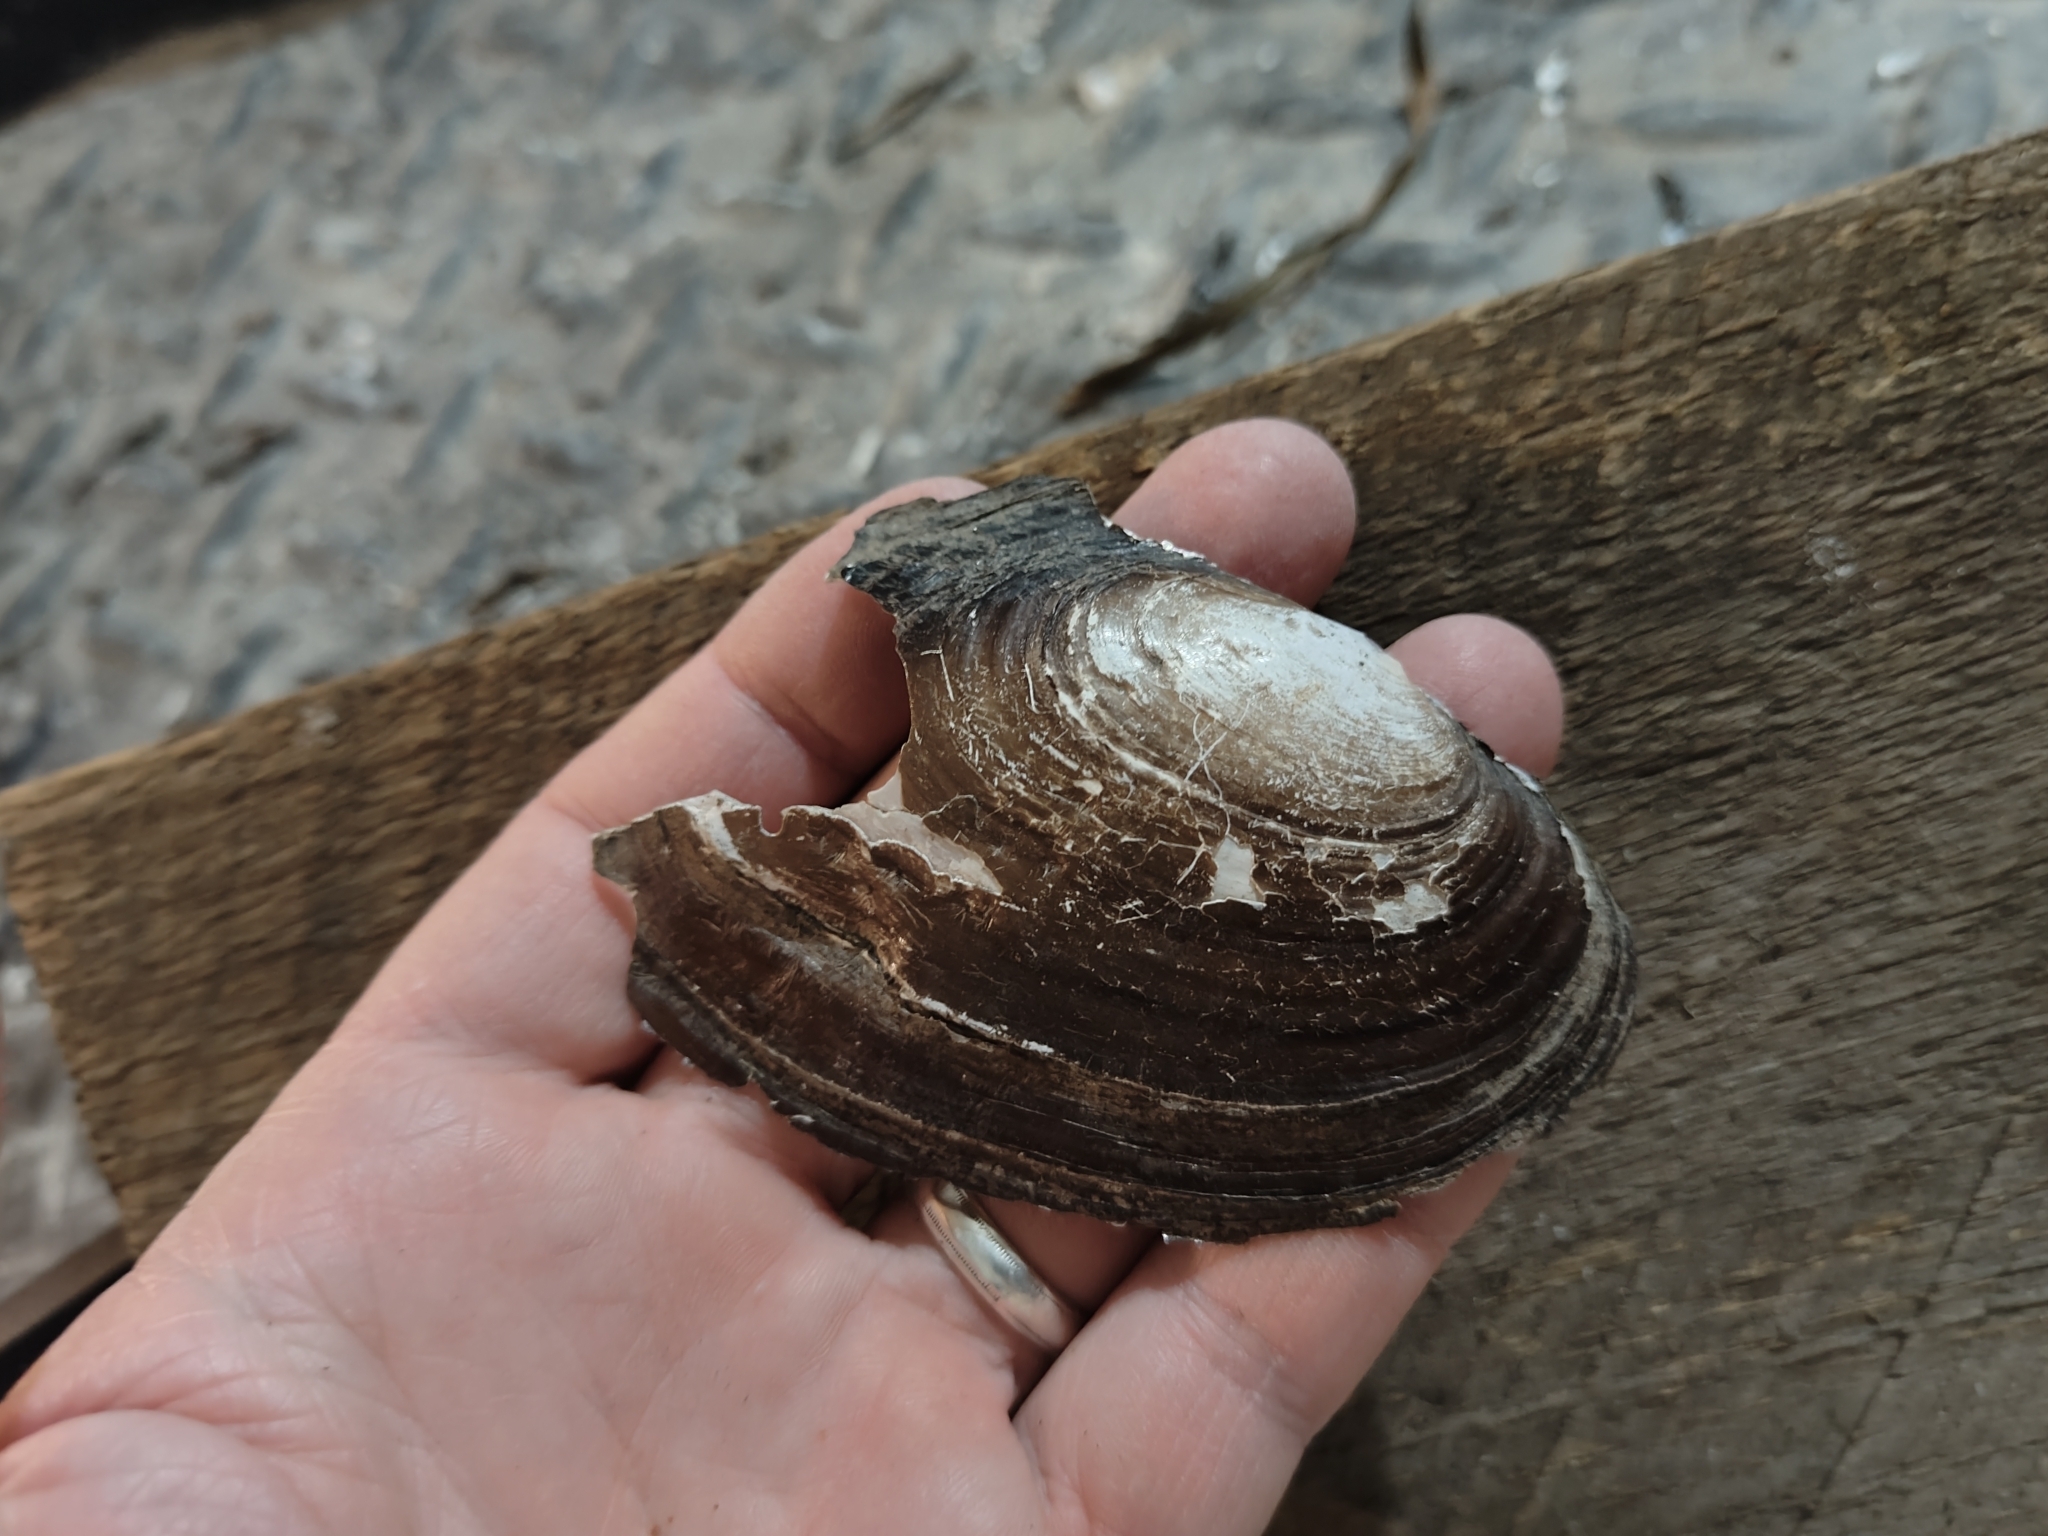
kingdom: Animalia
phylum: Mollusca
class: Bivalvia
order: Unionida
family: Unionidae
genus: Potamilus
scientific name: Potamilus ohiensis
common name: Pink papershell
